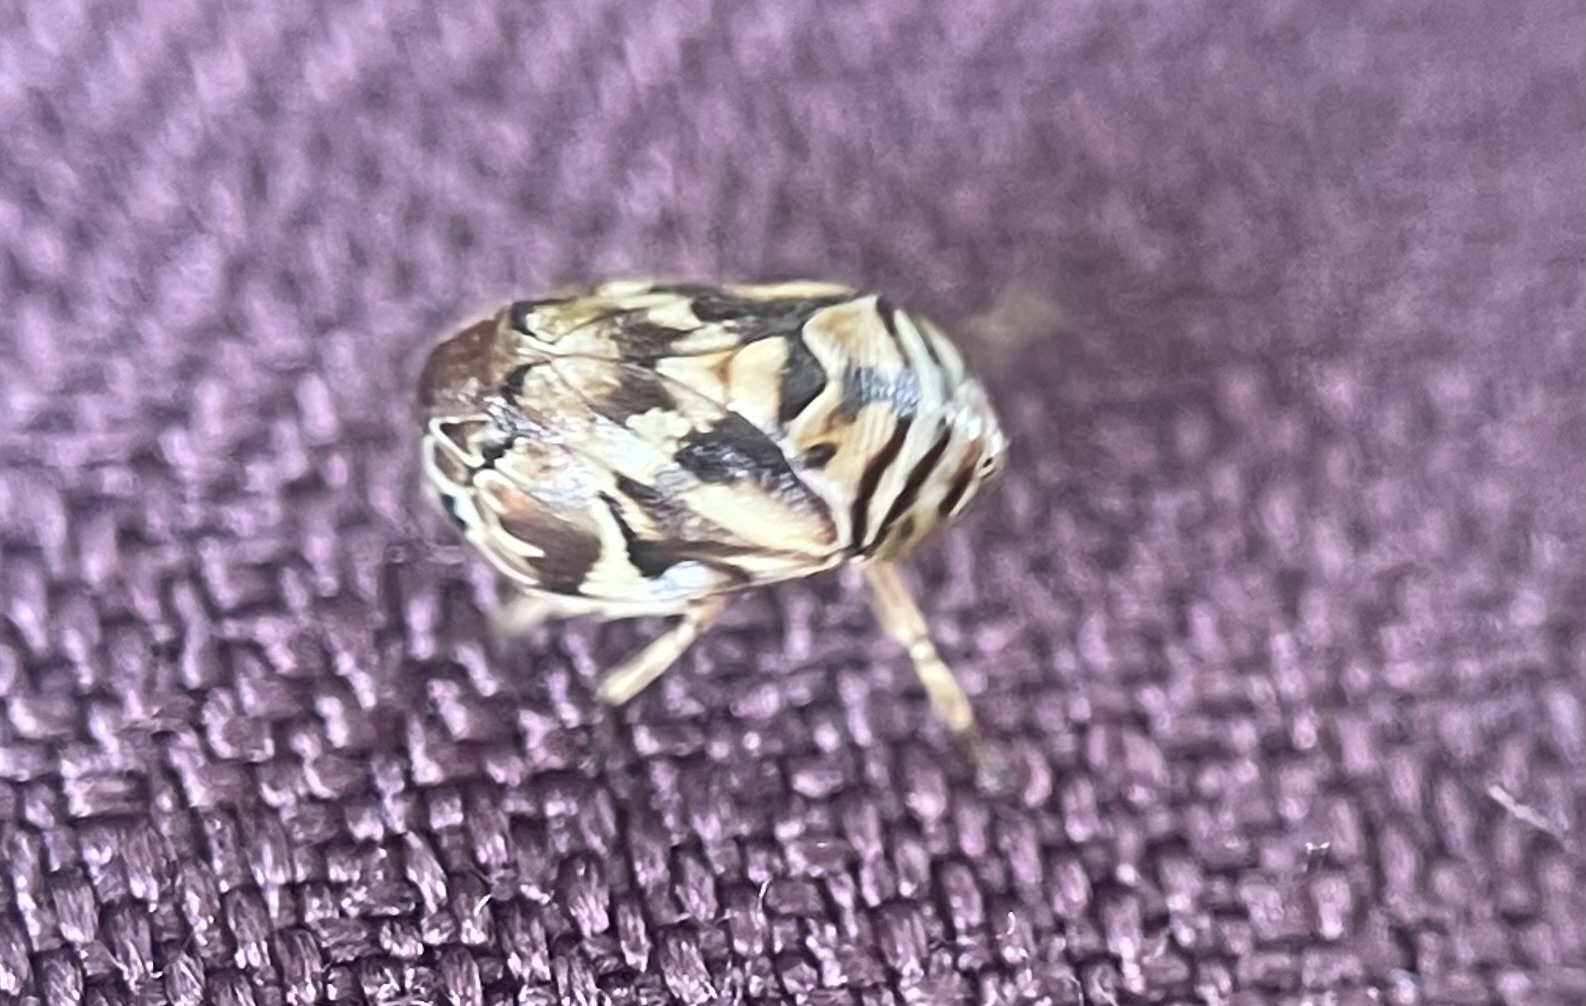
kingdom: Animalia
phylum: Arthropoda
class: Insecta
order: Hemiptera
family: Clastopteridae
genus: Clastoptera
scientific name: Clastoptera arborina
